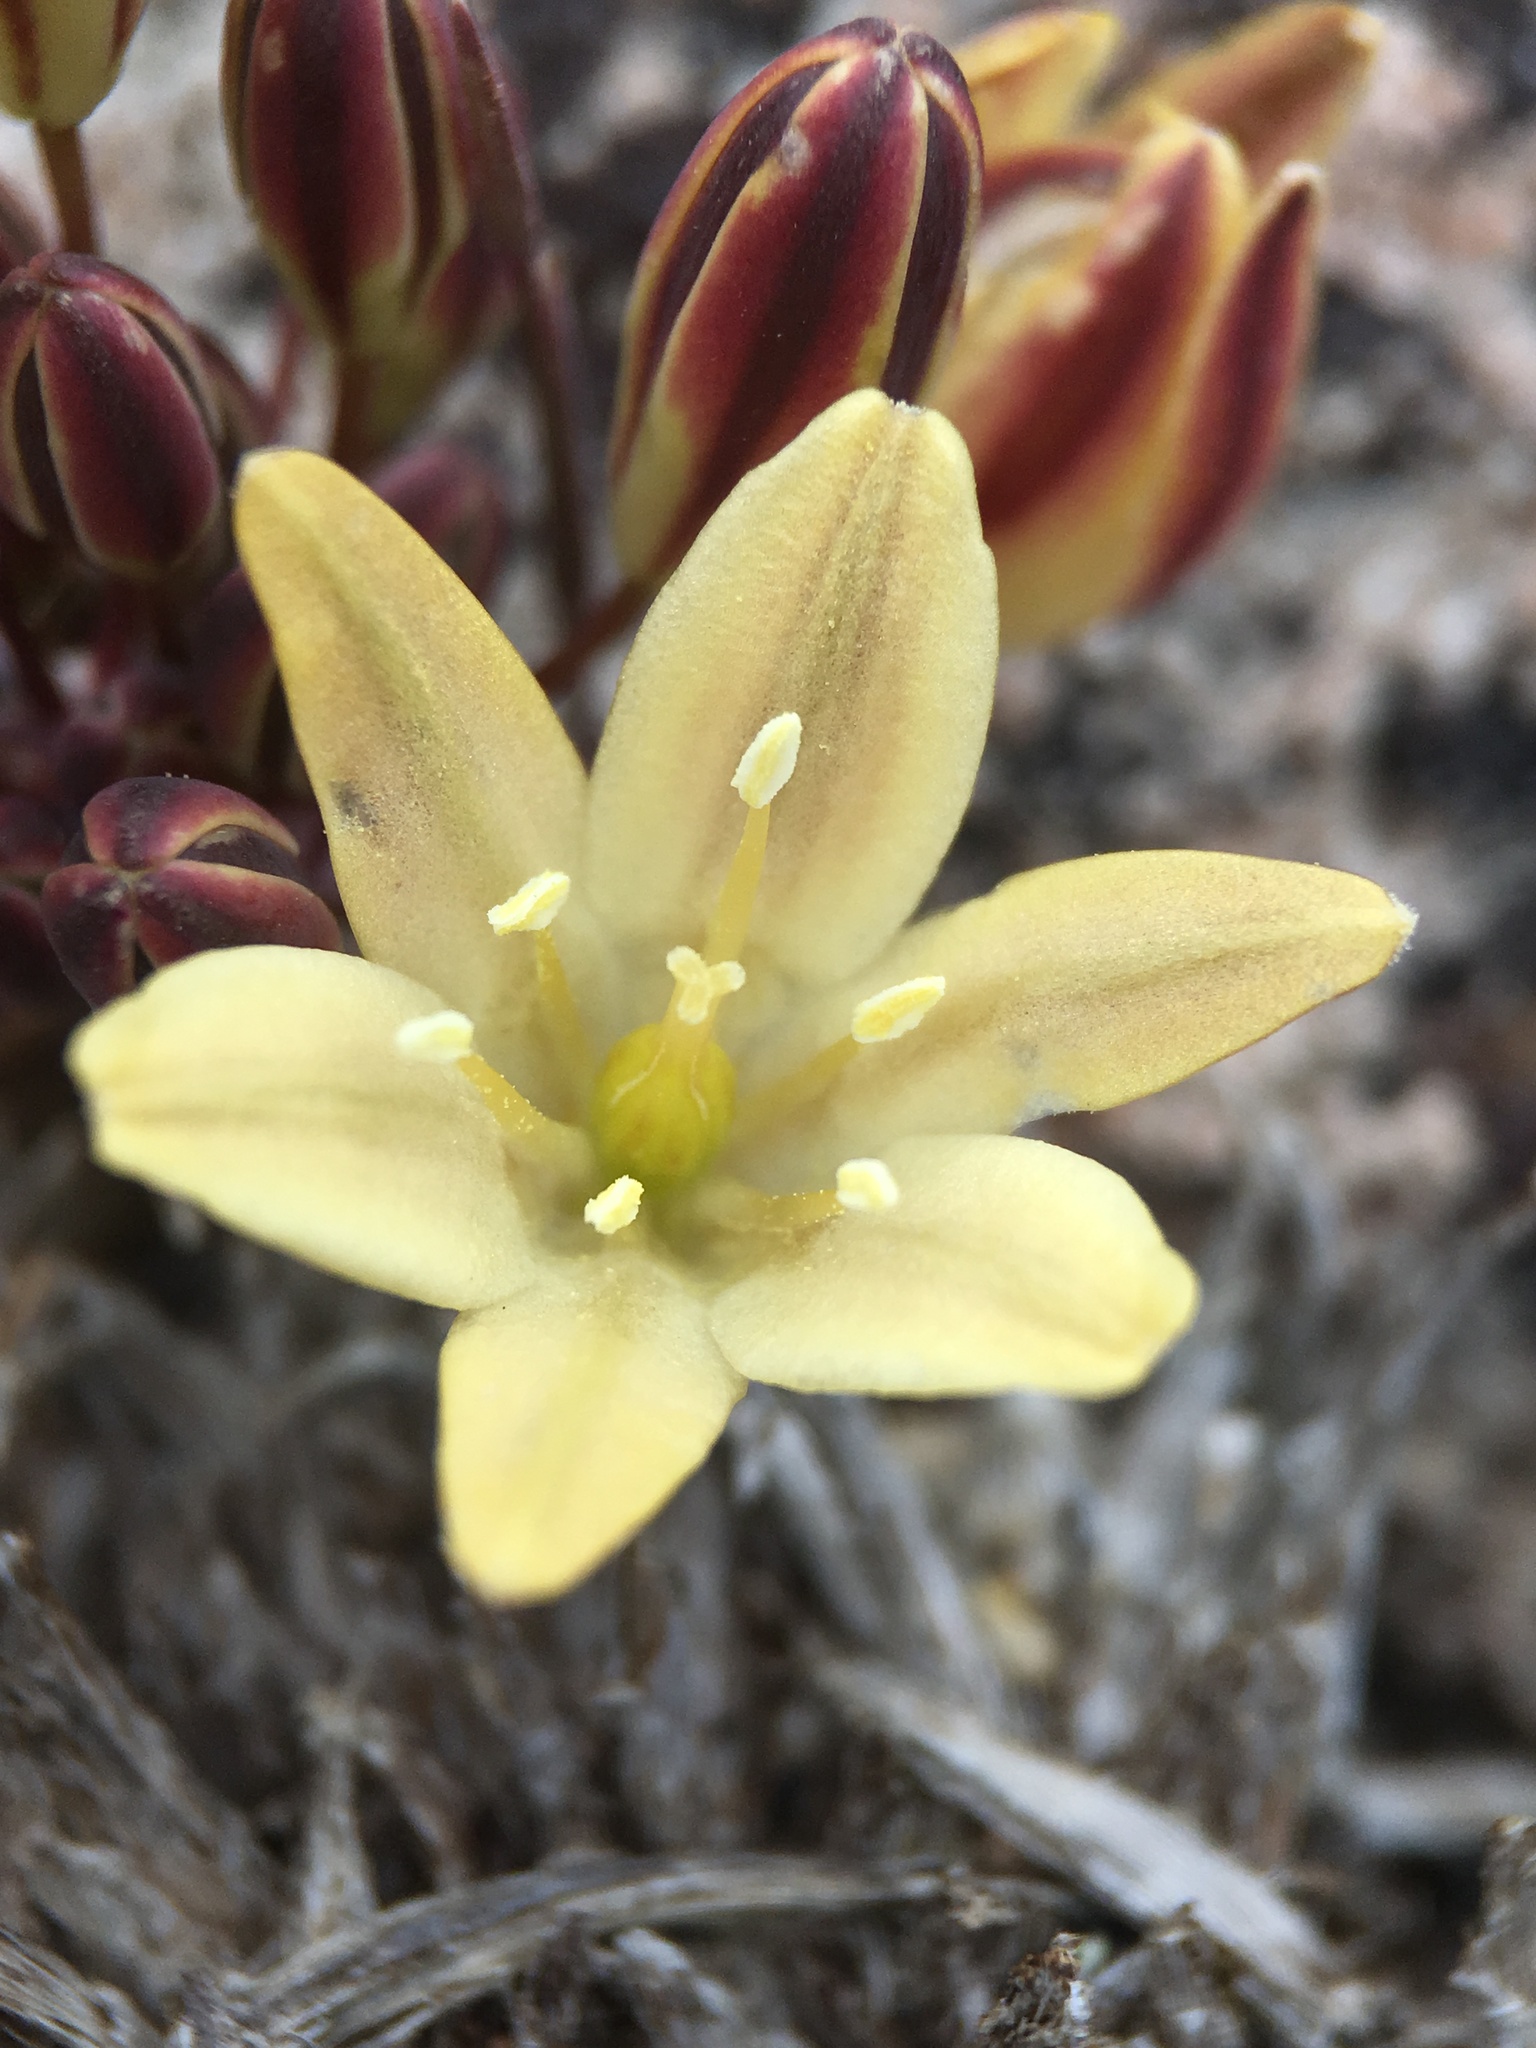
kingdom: Plantae
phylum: Tracheophyta
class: Liliopsida
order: Asparagales
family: Asparagaceae
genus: Triteleia
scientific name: Triteleia piutensis
